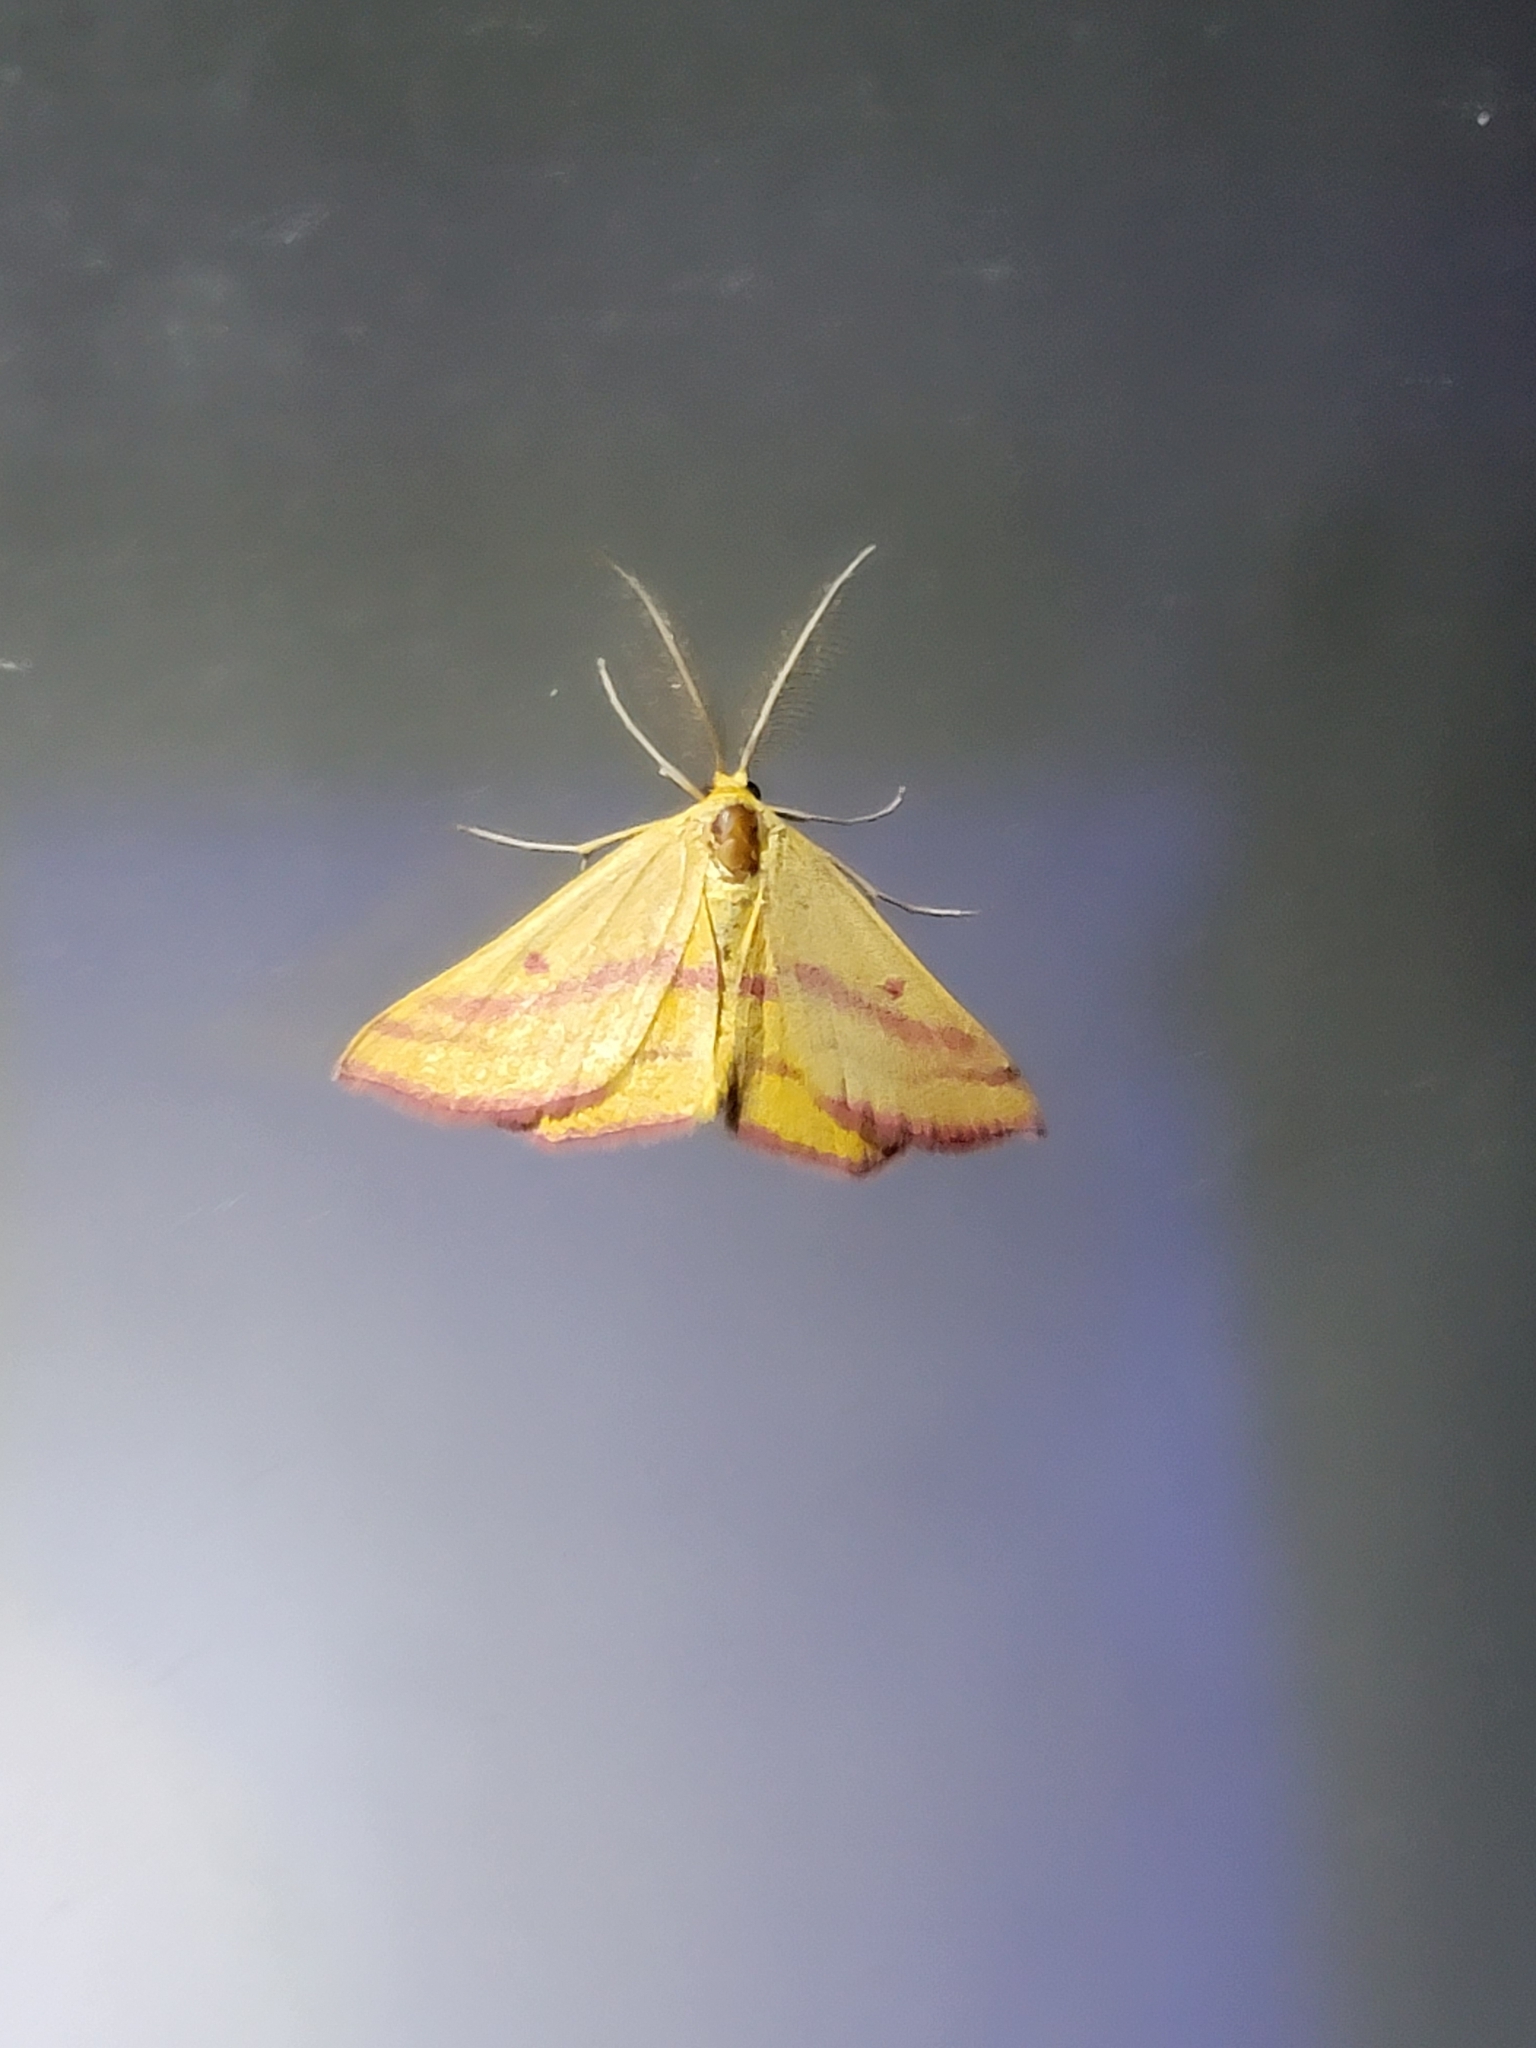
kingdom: Animalia
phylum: Arthropoda
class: Insecta
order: Lepidoptera
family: Geometridae
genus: Haematopis
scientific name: Haematopis grataria
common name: Chickweed geometer
